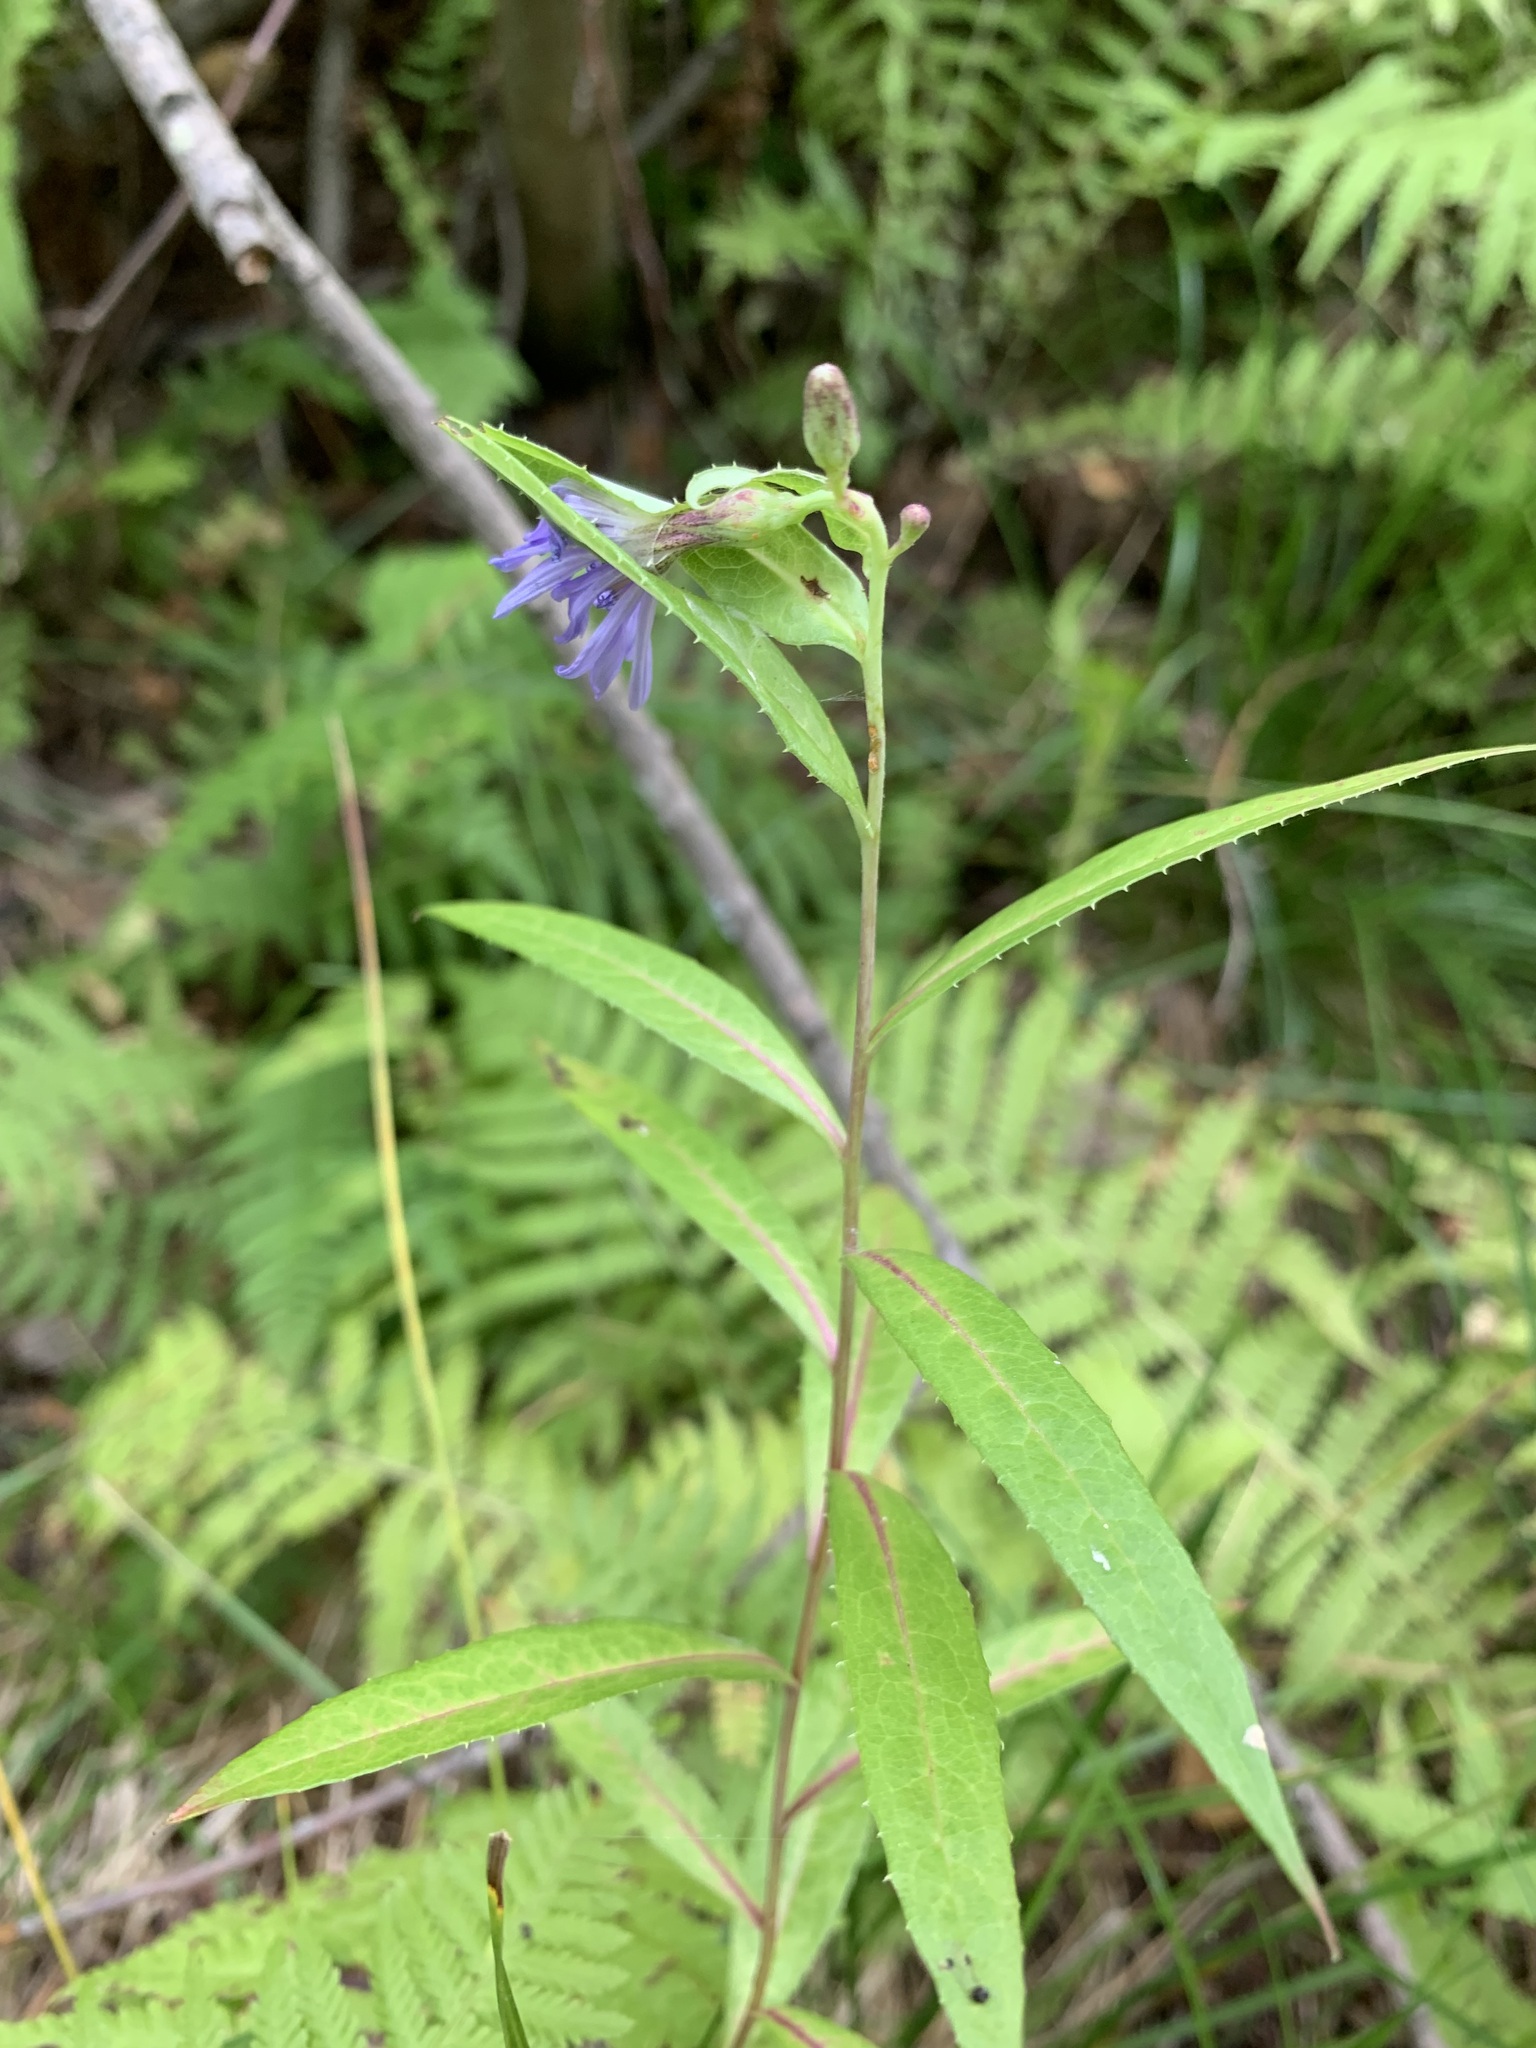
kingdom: Plantae
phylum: Tracheophyta
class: Magnoliopsida
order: Asterales
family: Asteraceae
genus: Lactuca
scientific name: Lactuca sibirica
